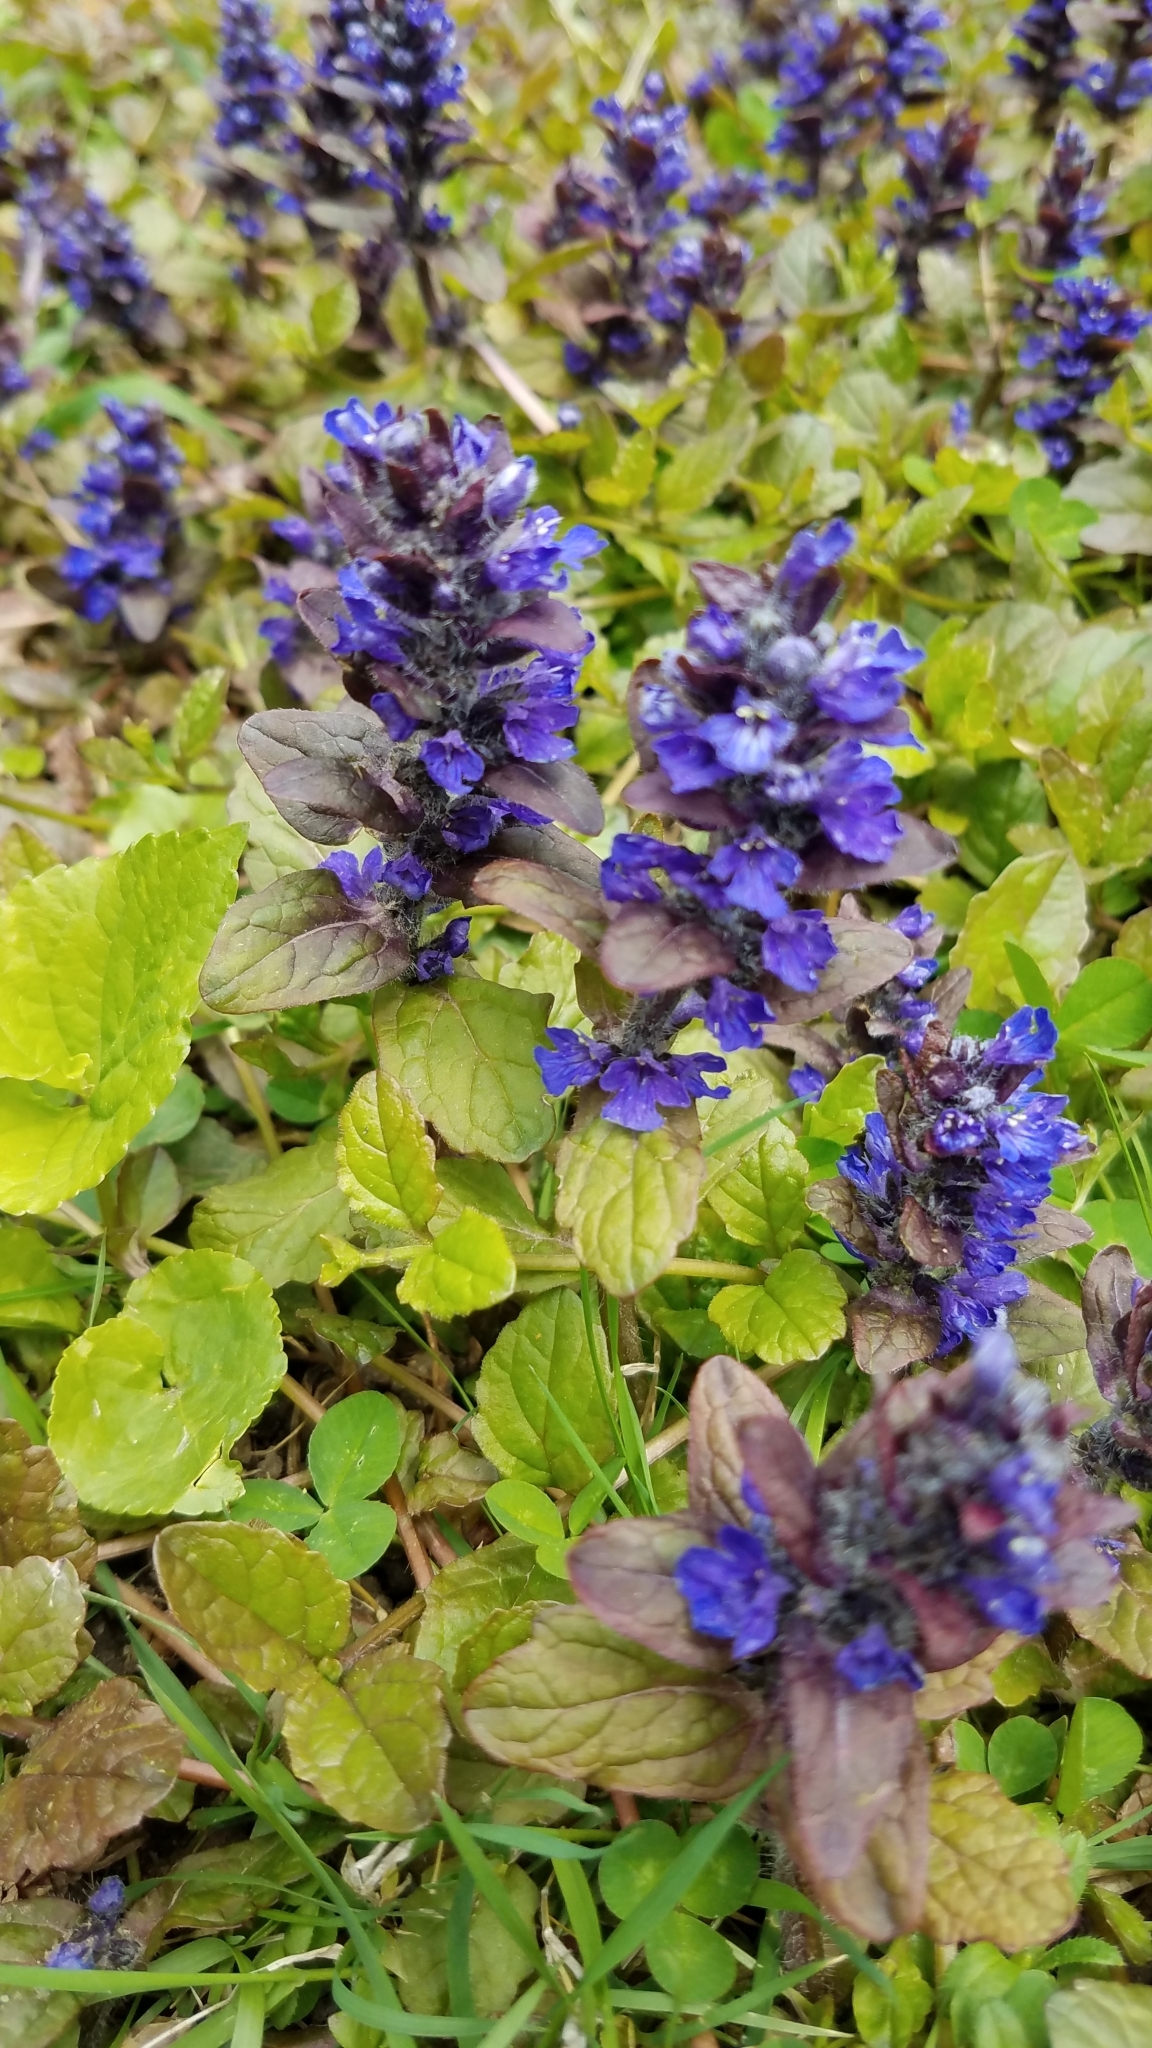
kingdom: Plantae
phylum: Tracheophyta
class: Magnoliopsida
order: Lamiales
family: Lamiaceae
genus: Ajuga
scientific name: Ajuga reptans
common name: Bugle
